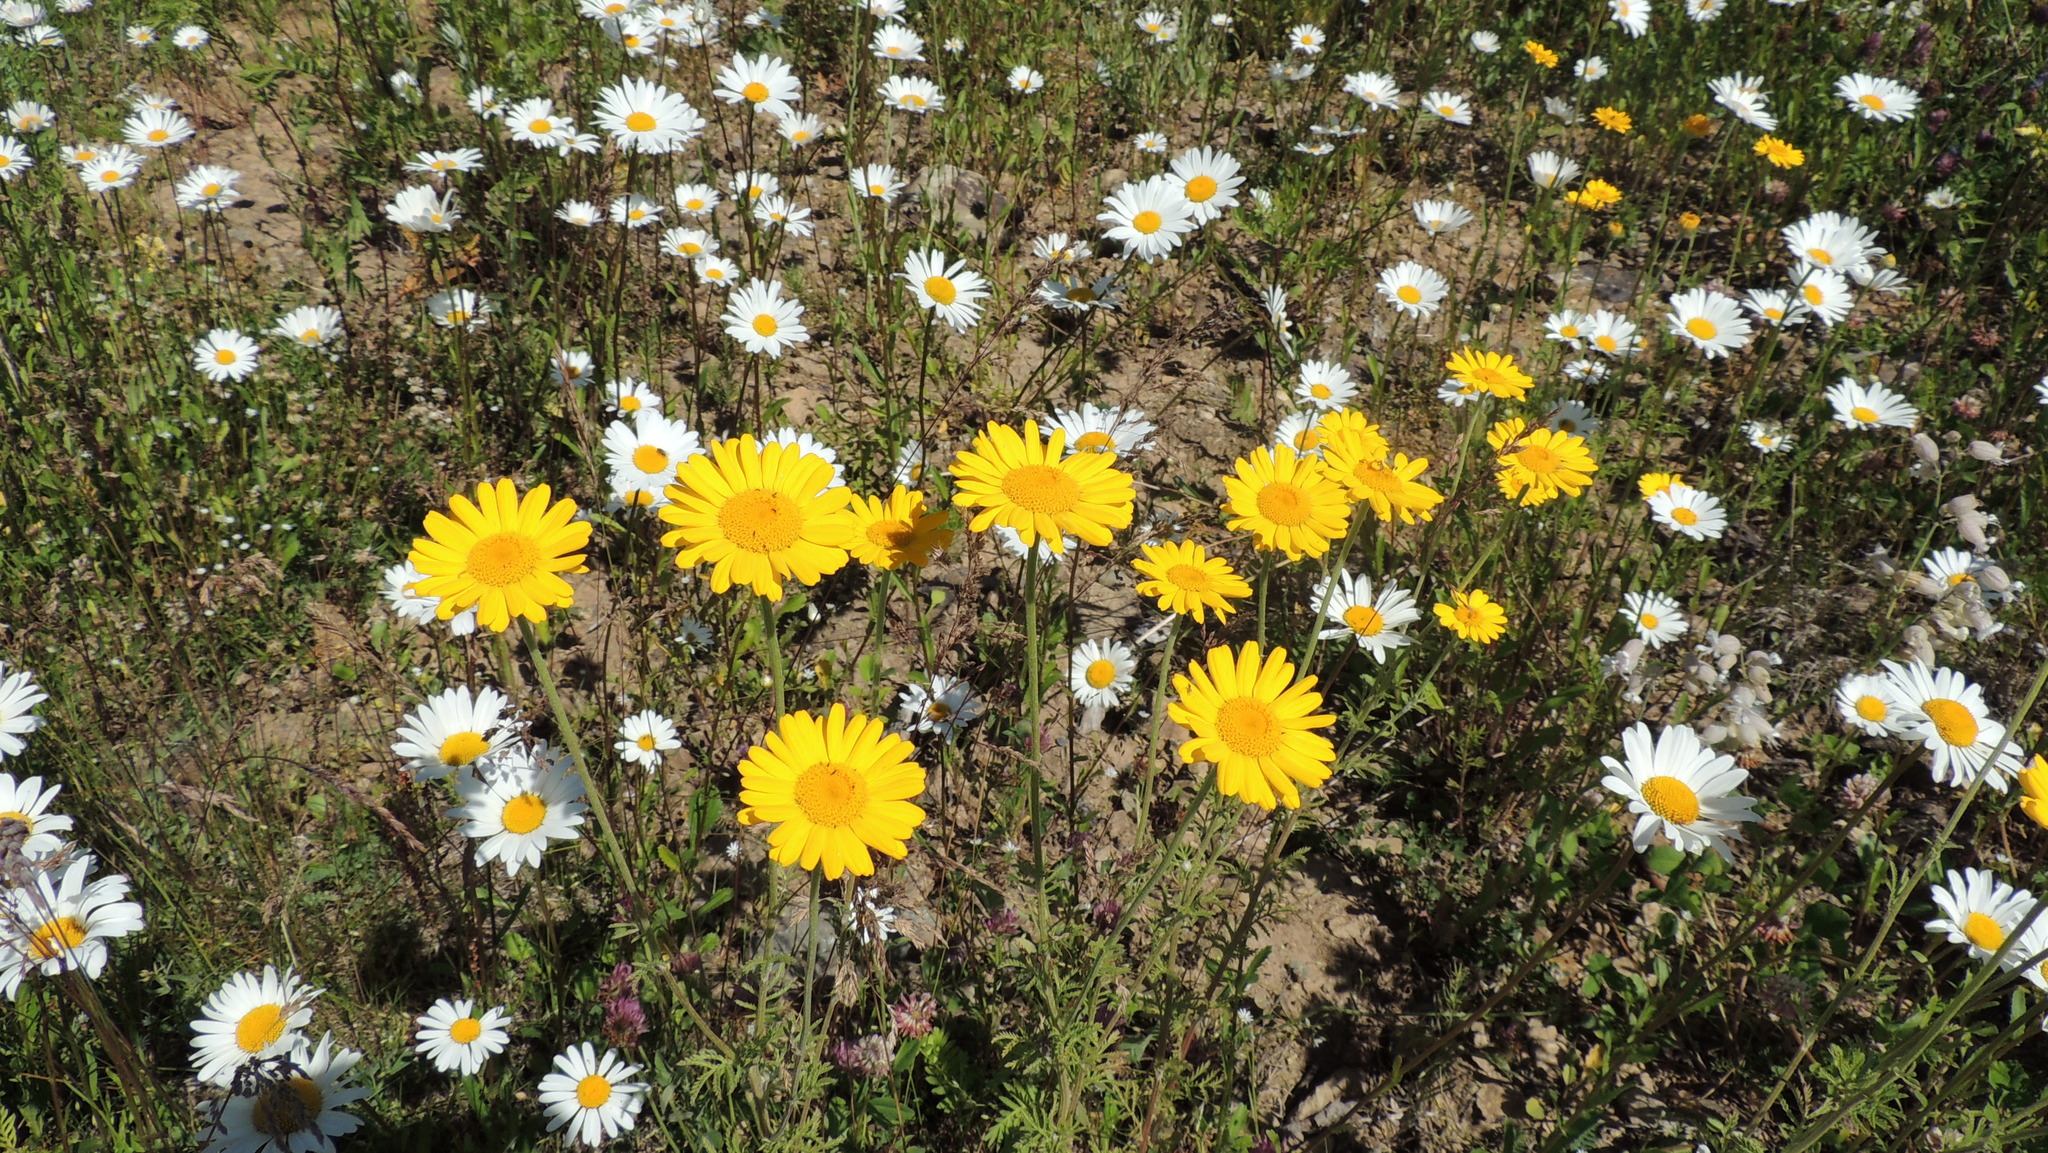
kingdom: Plantae
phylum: Tracheophyta
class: Magnoliopsida
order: Asterales
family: Asteraceae
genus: Cota
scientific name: Cota tinctoria
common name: Golden chamomile
